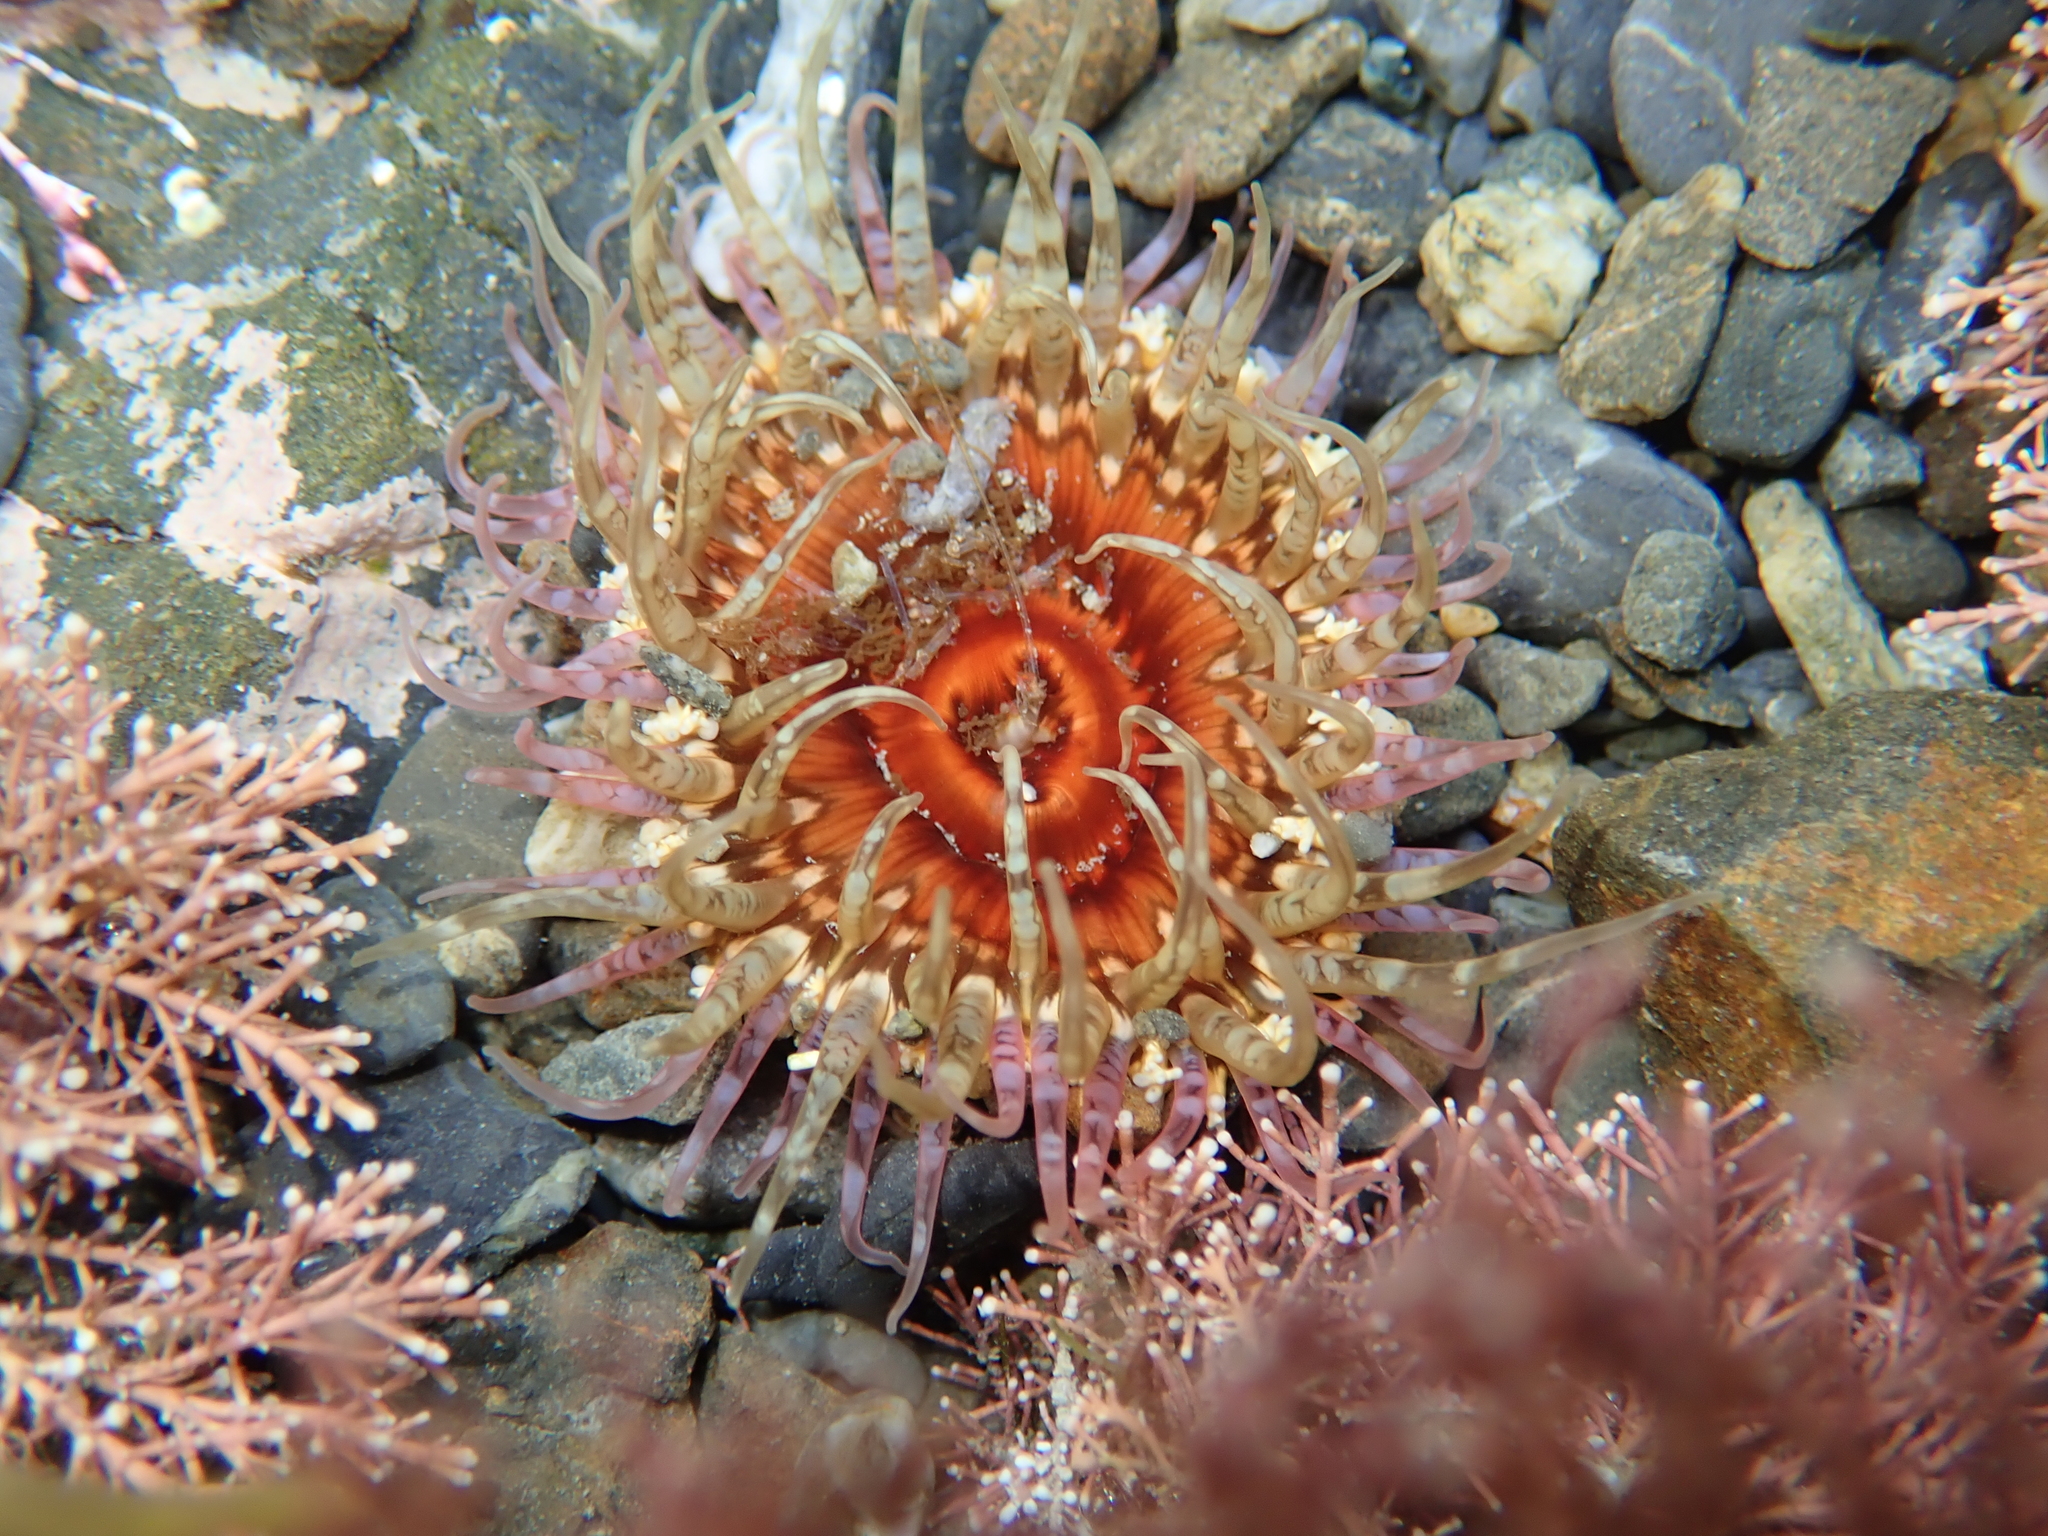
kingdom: Animalia
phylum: Cnidaria
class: Anthozoa
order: Actiniaria
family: Actiniidae
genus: Oulactis
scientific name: Oulactis muscosa
